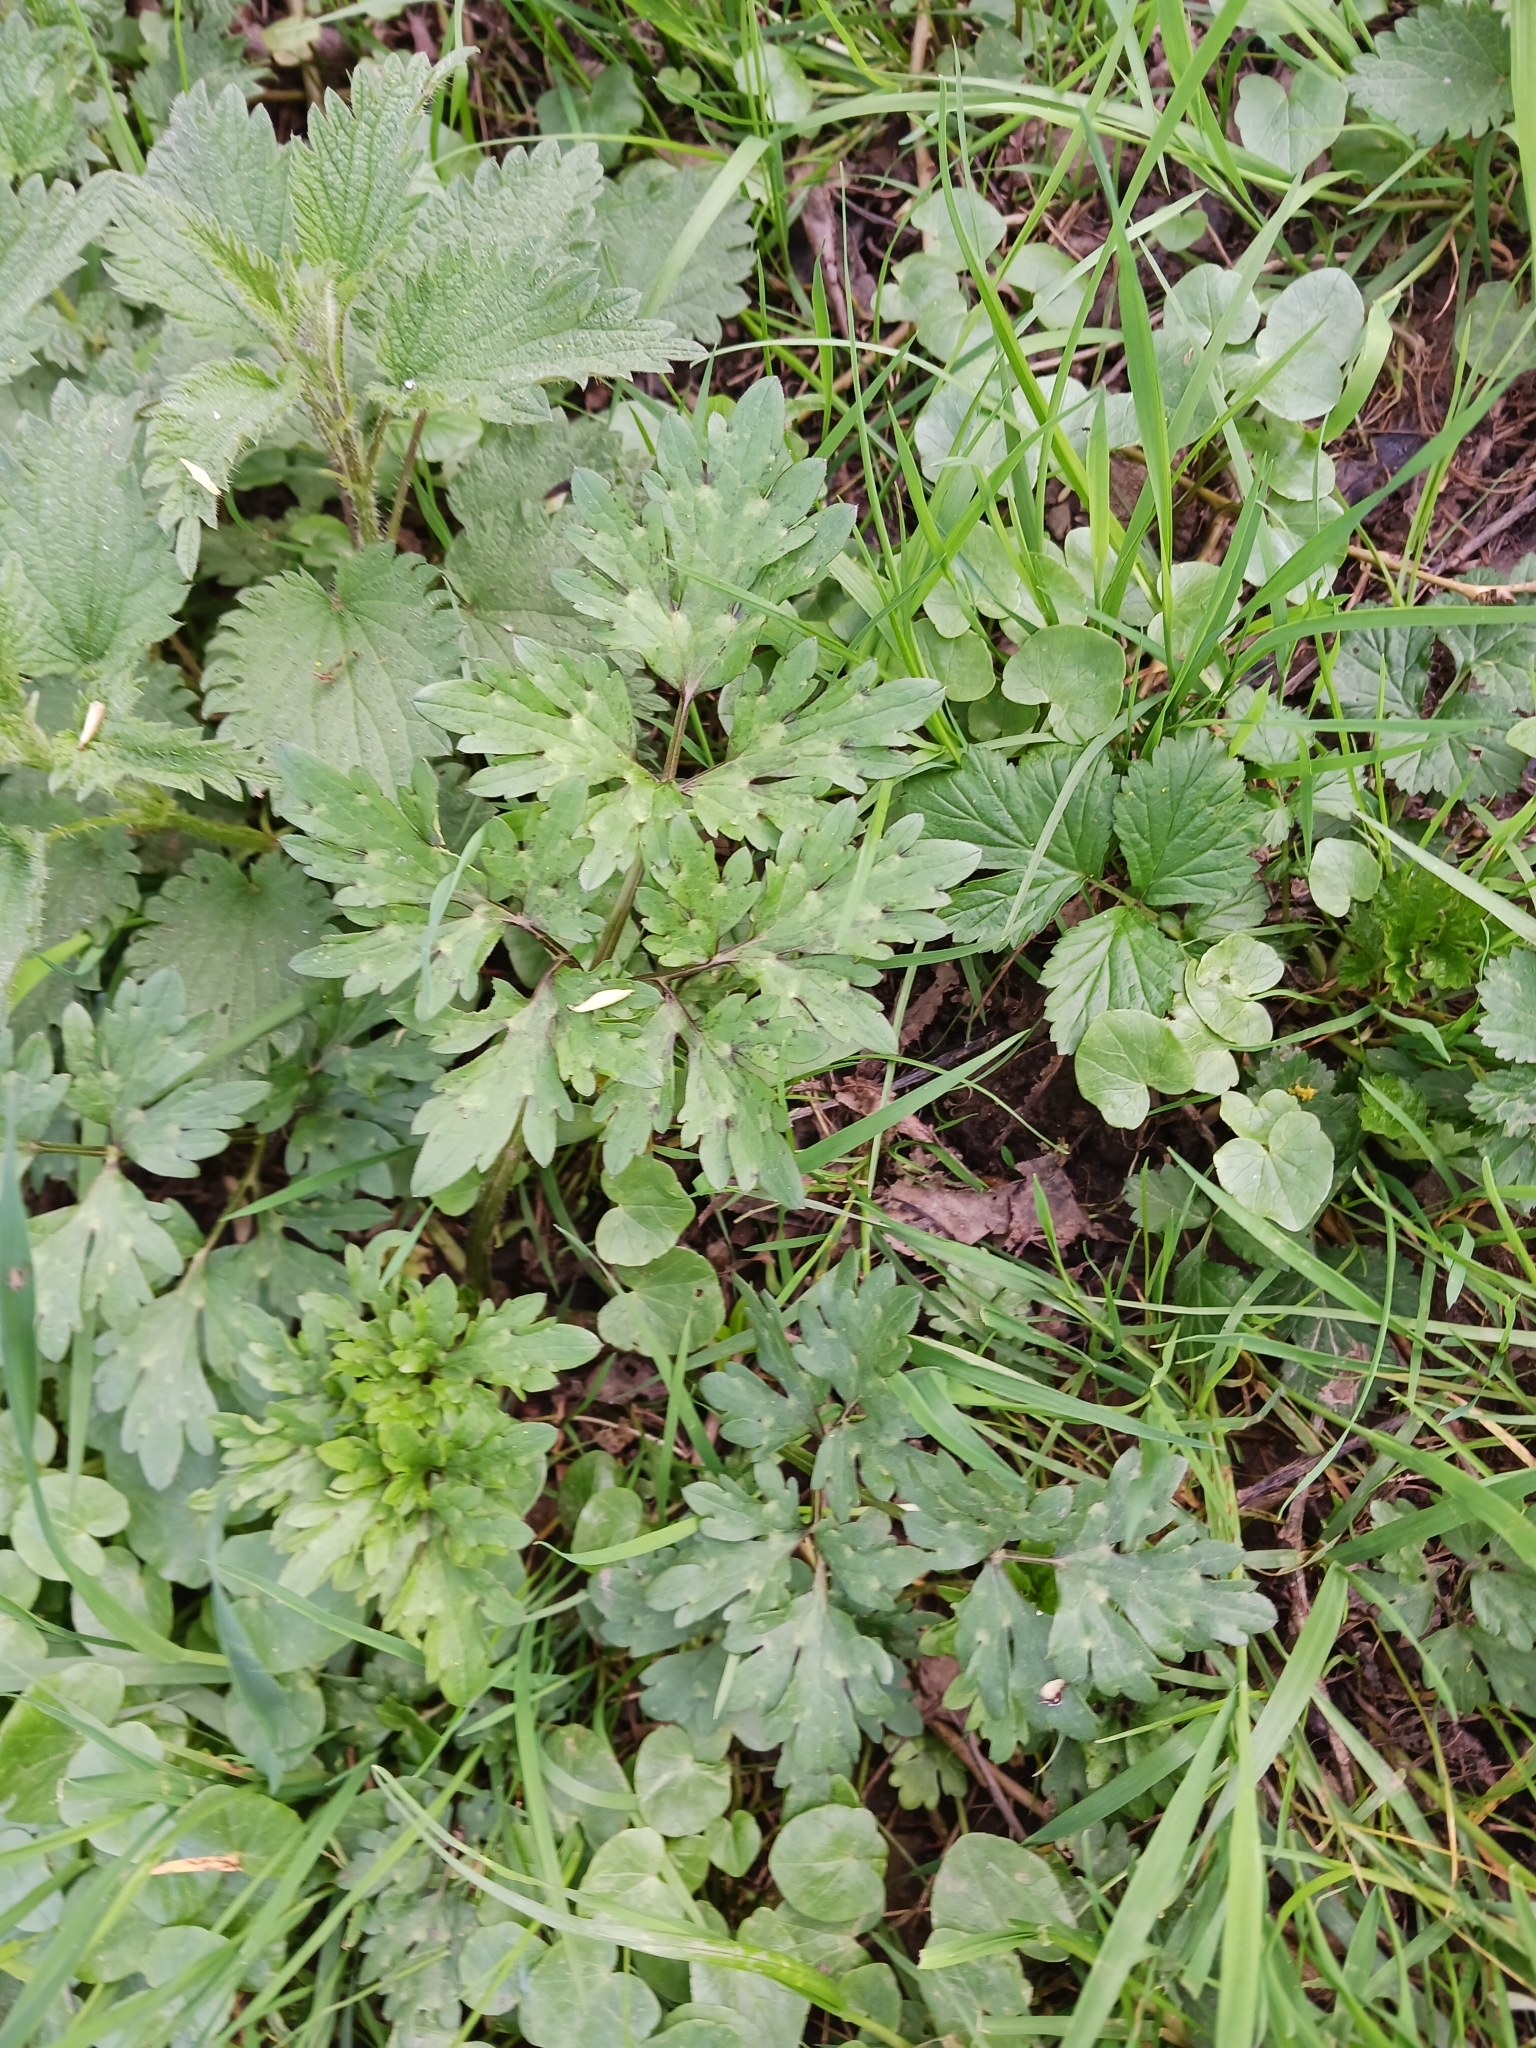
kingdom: Plantae
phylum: Tracheophyta
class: Magnoliopsida
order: Ranunculales
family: Ranunculaceae
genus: Ranunculus
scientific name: Ranunculus repens
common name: Creeping buttercup
